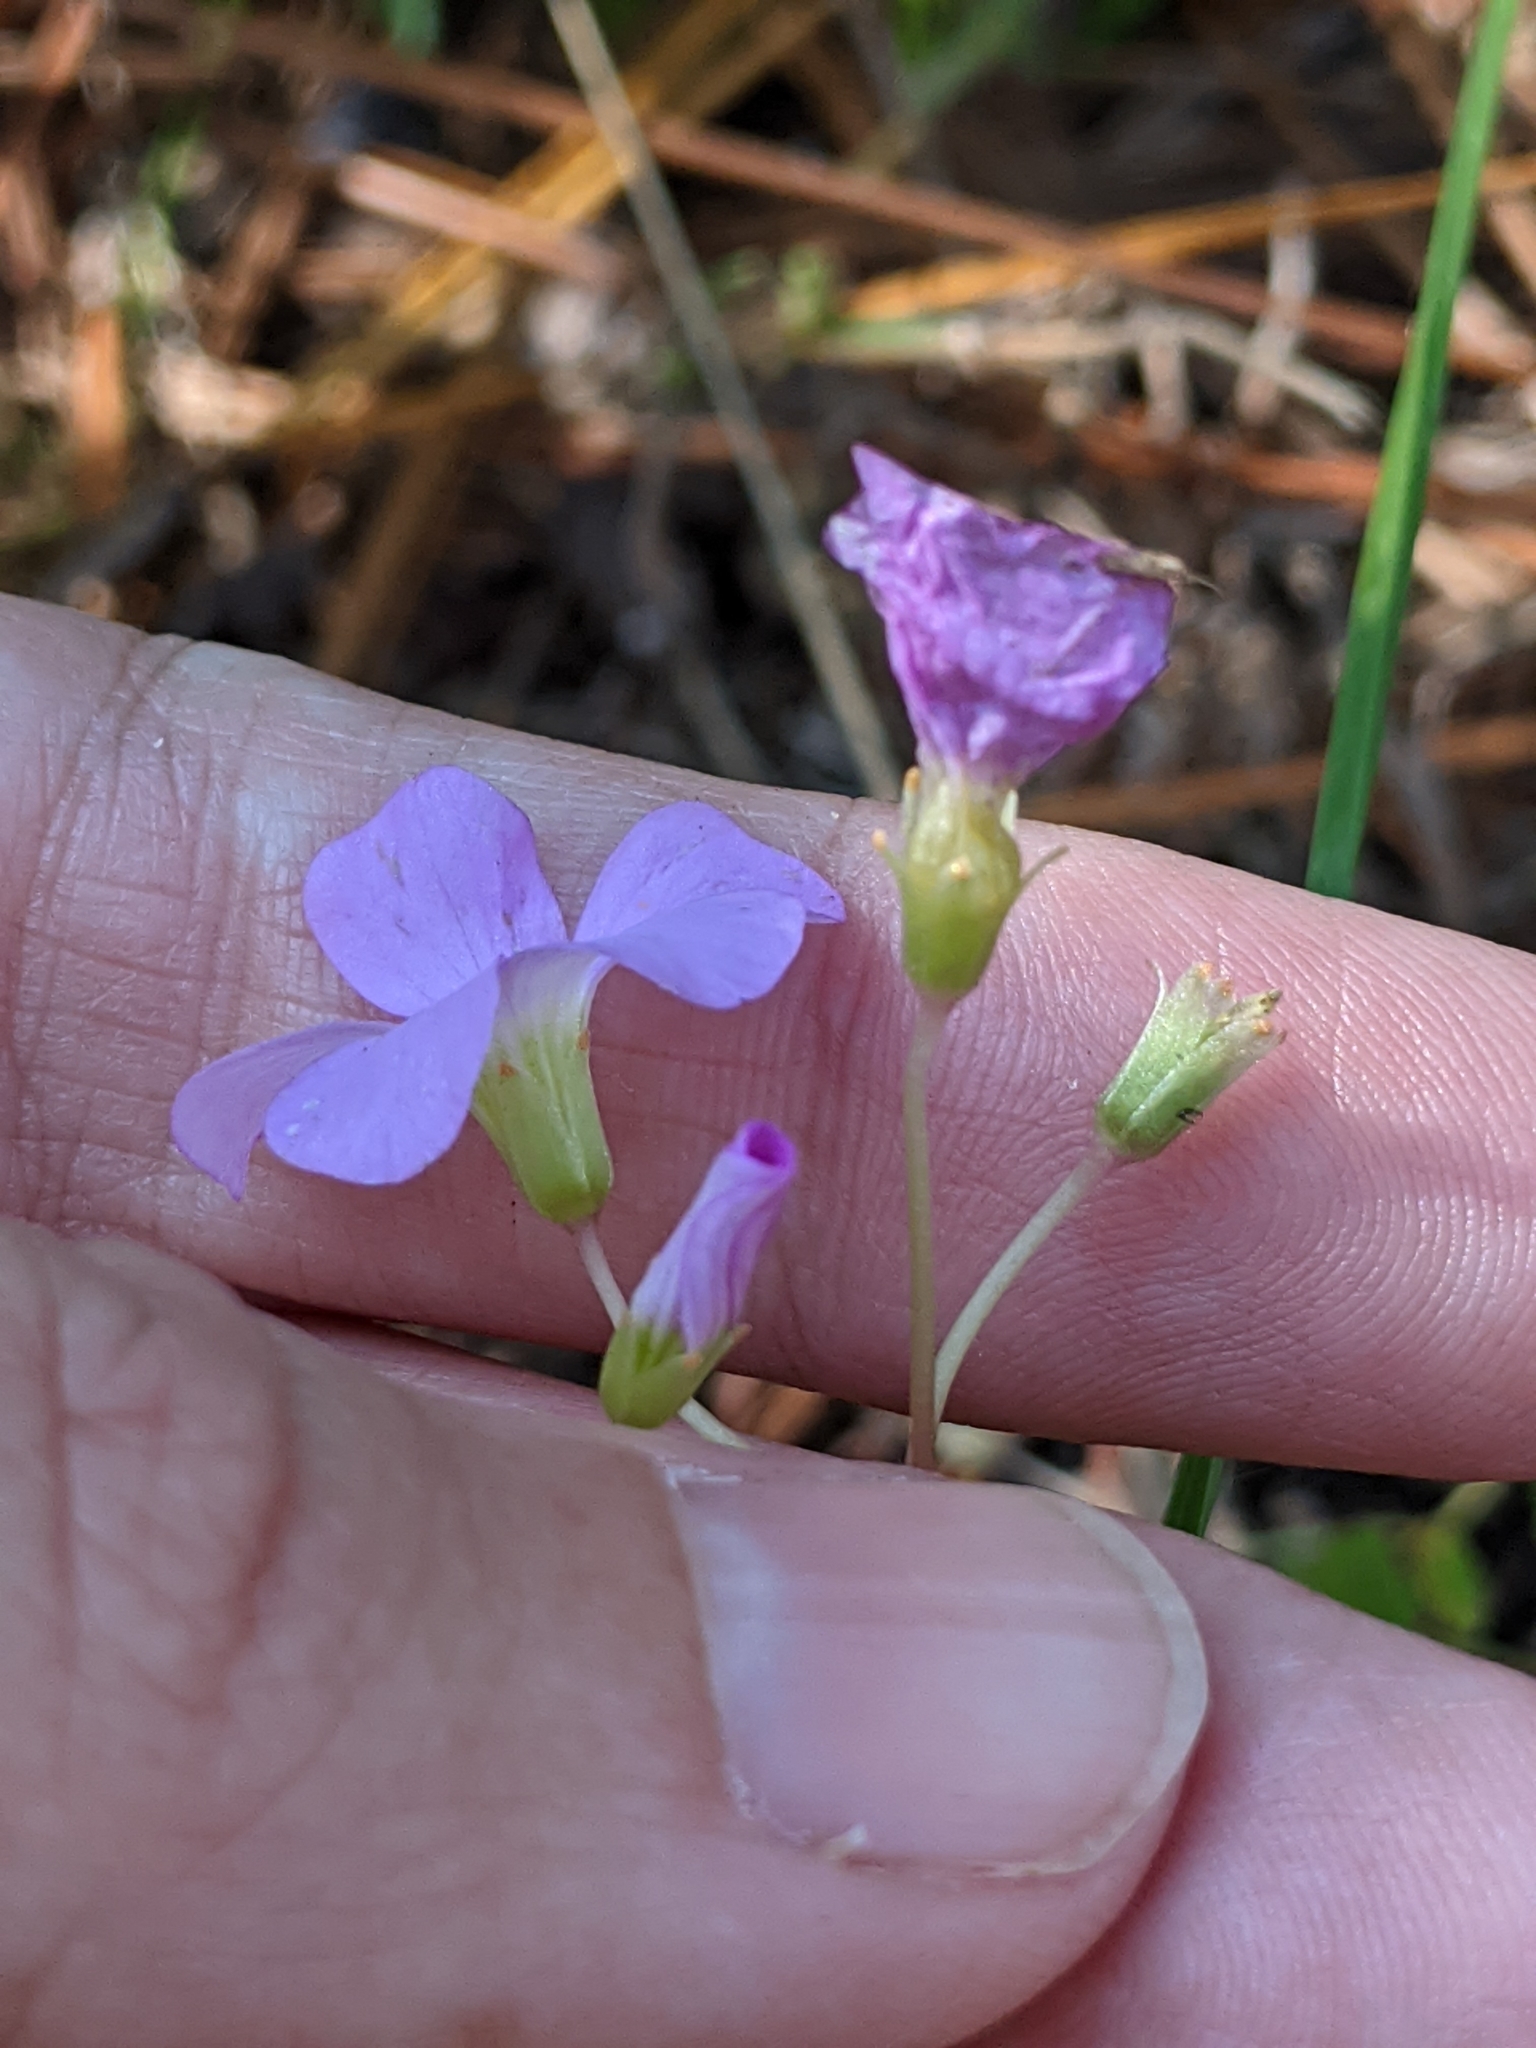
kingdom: Plantae
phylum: Tracheophyta
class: Magnoliopsida
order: Oxalidales
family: Oxalidaceae
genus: Oxalis
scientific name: Oxalis violacea
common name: Violet wood-sorrel
